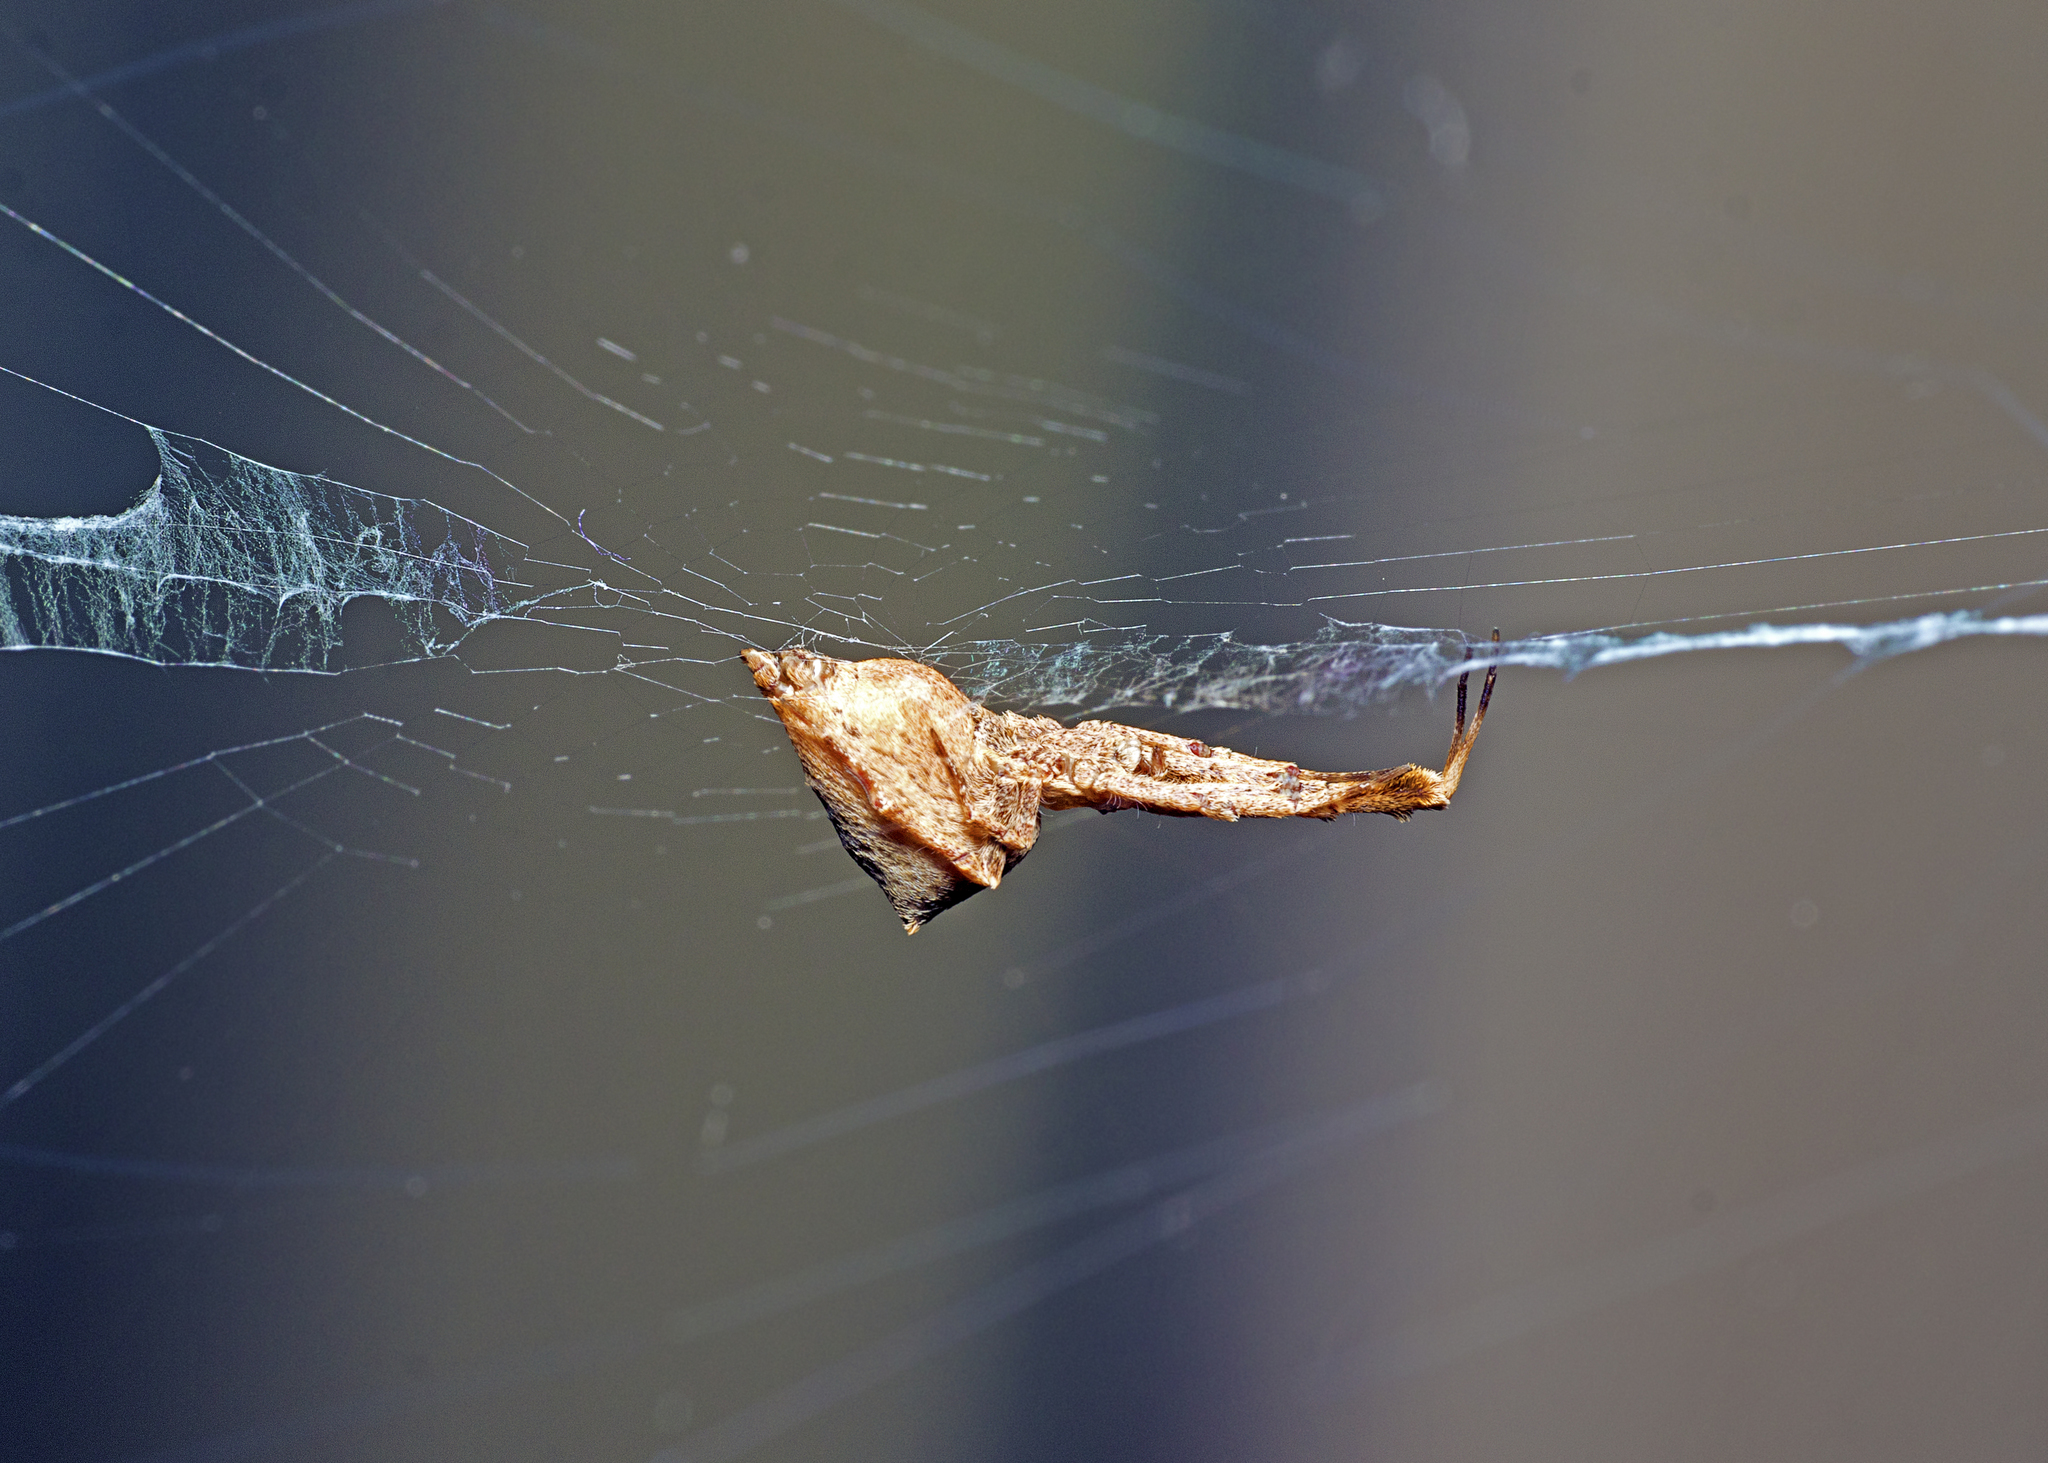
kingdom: Animalia
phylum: Arthropoda
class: Arachnida
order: Araneae
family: Uloboridae
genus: Uloborus
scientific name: Uloborus barbipes
